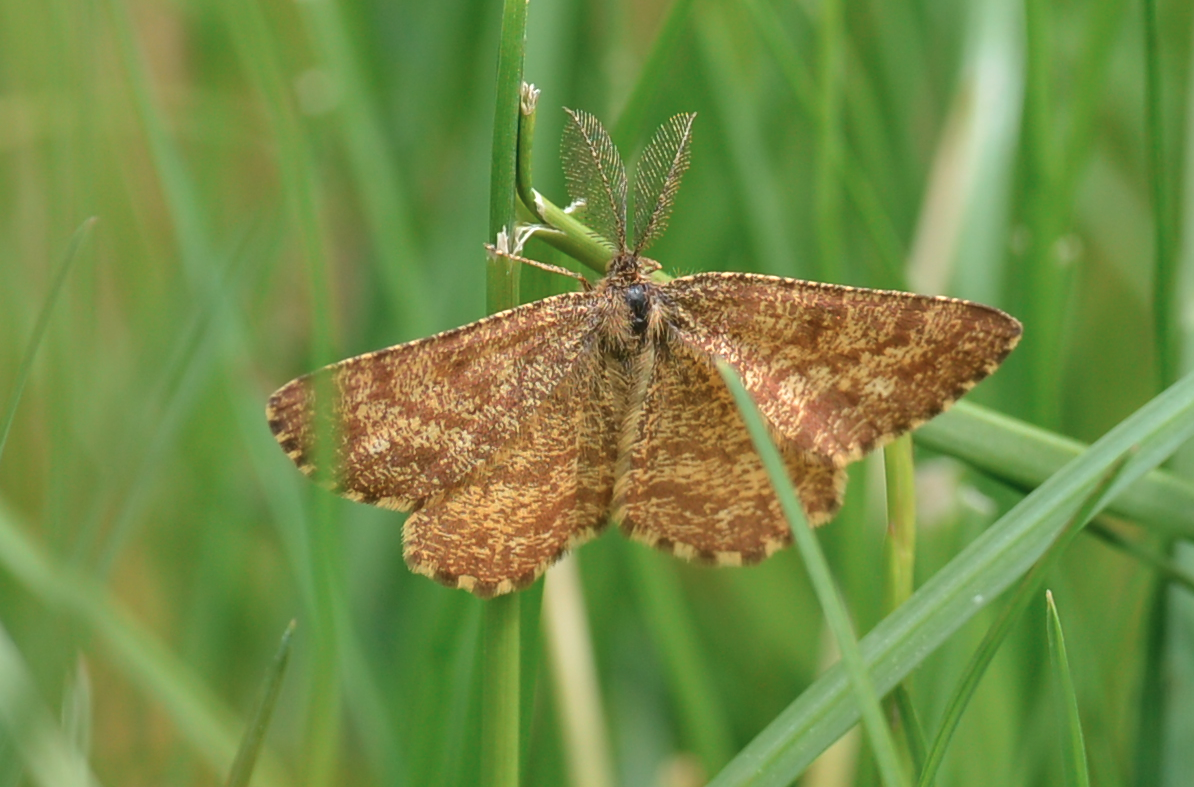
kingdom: Animalia
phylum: Arthropoda
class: Insecta
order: Lepidoptera
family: Geometridae
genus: Ematurga
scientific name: Ematurga atomaria
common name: Common heath
